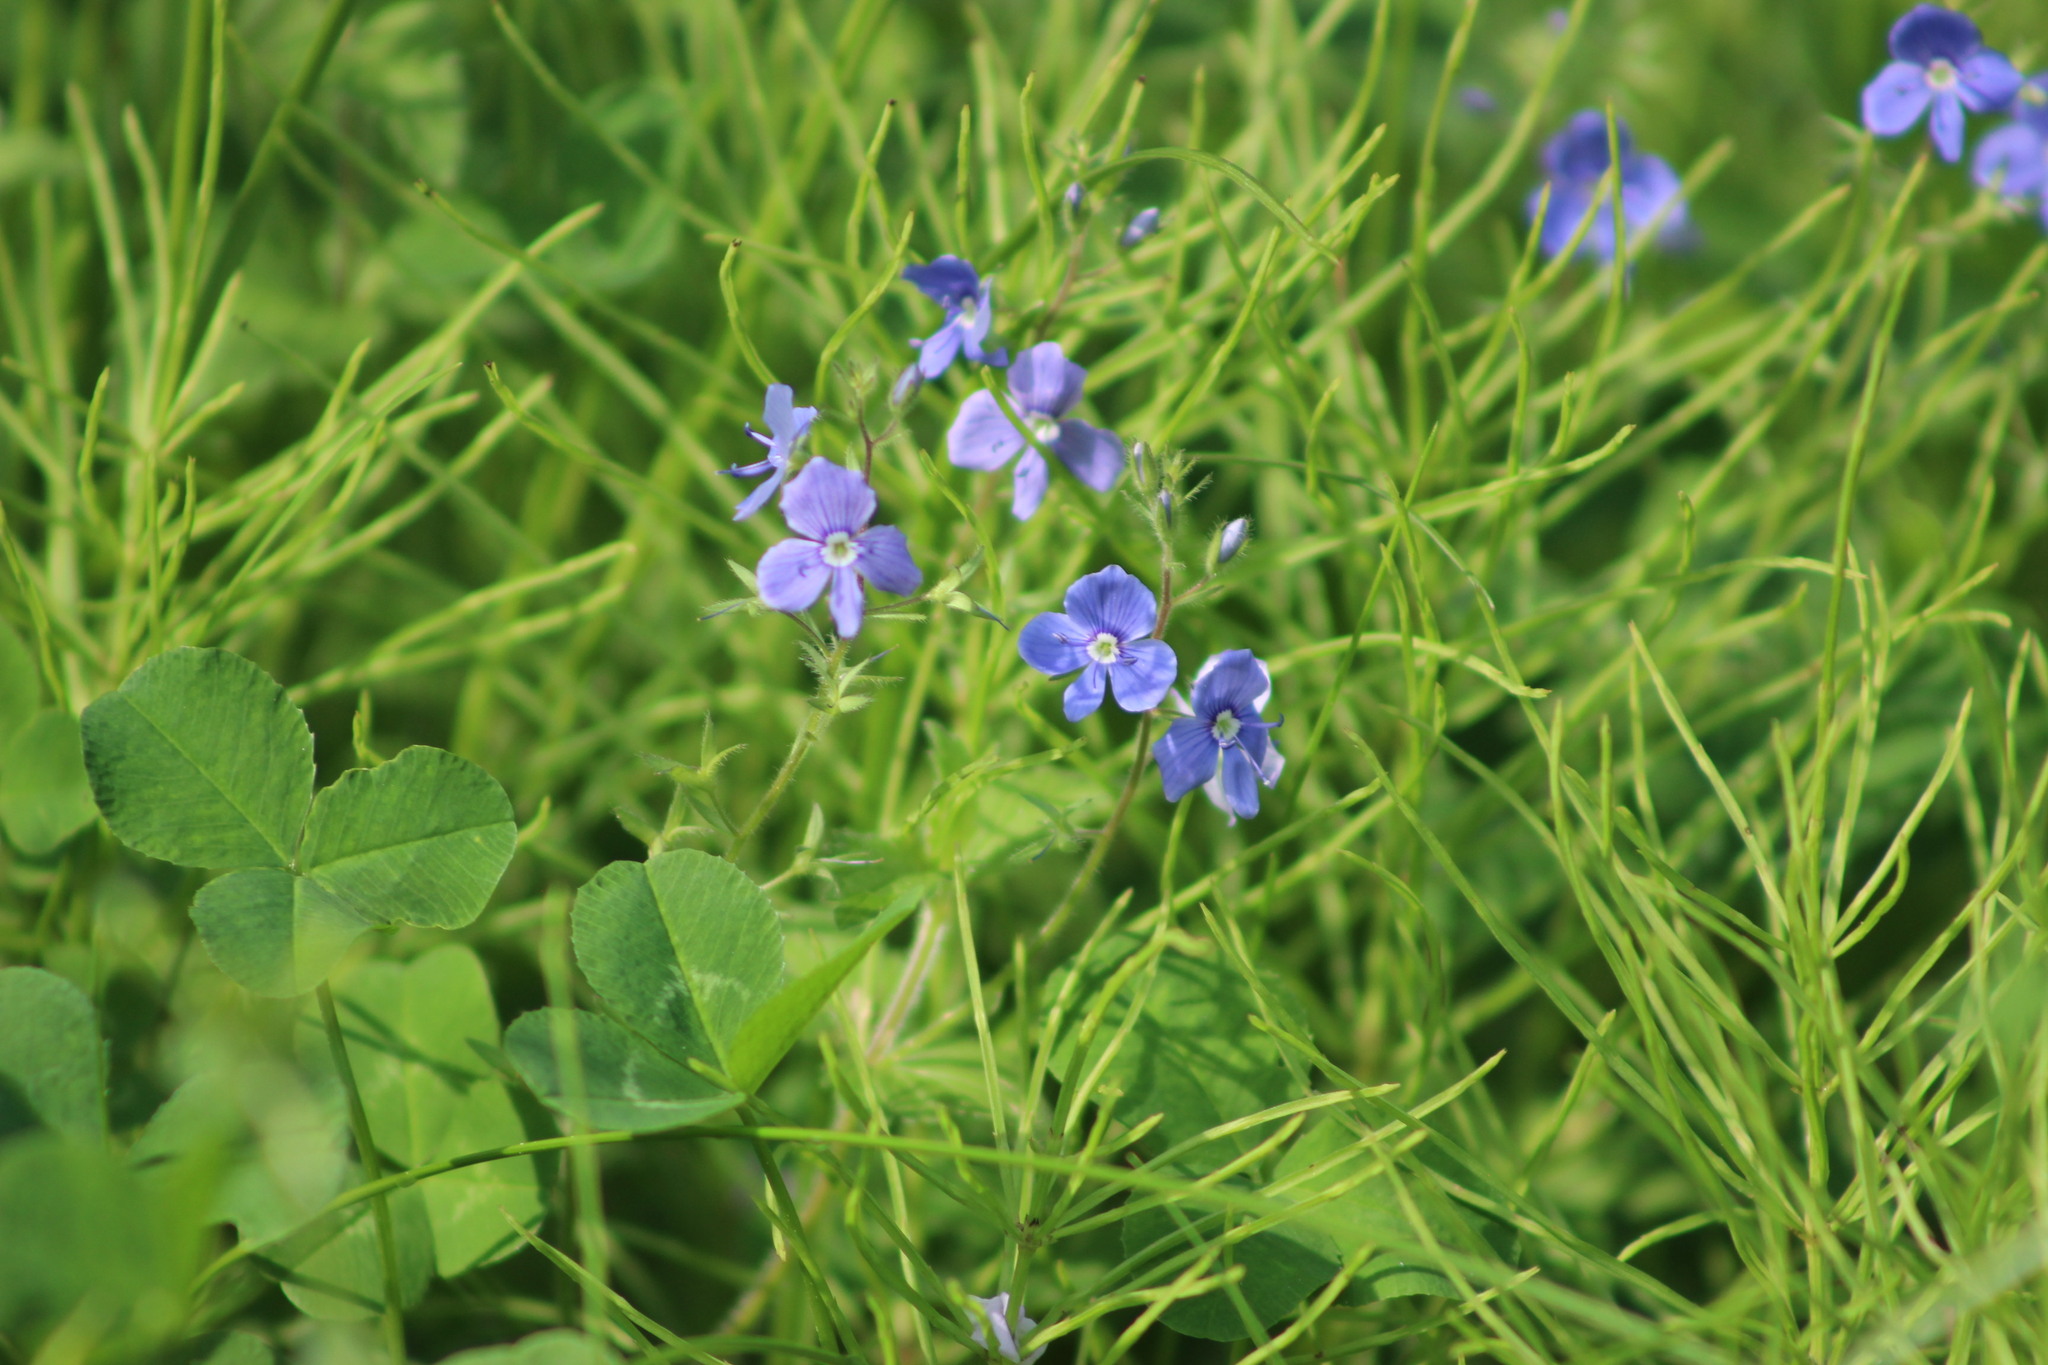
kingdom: Plantae
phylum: Tracheophyta
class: Magnoliopsida
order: Lamiales
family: Plantaginaceae
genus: Veronica
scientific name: Veronica chamaedrys
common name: Germander speedwell
